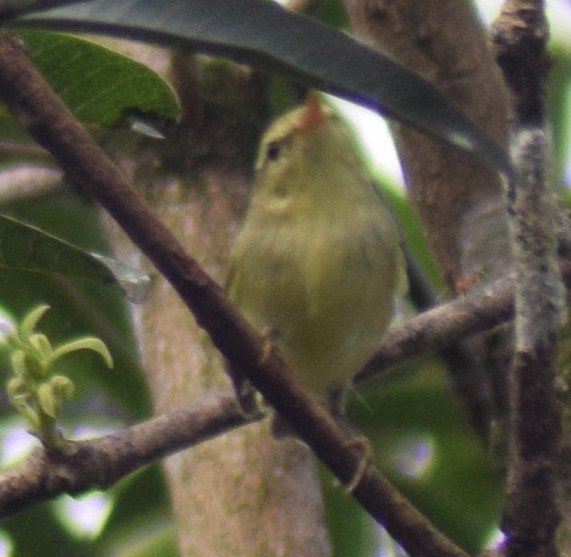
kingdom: Animalia
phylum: Chordata
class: Aves
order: Passeriformes
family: Phylloscopidae
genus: Phylloscopus
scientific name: Phylloscopus trochiloides
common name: Greenish warbler
